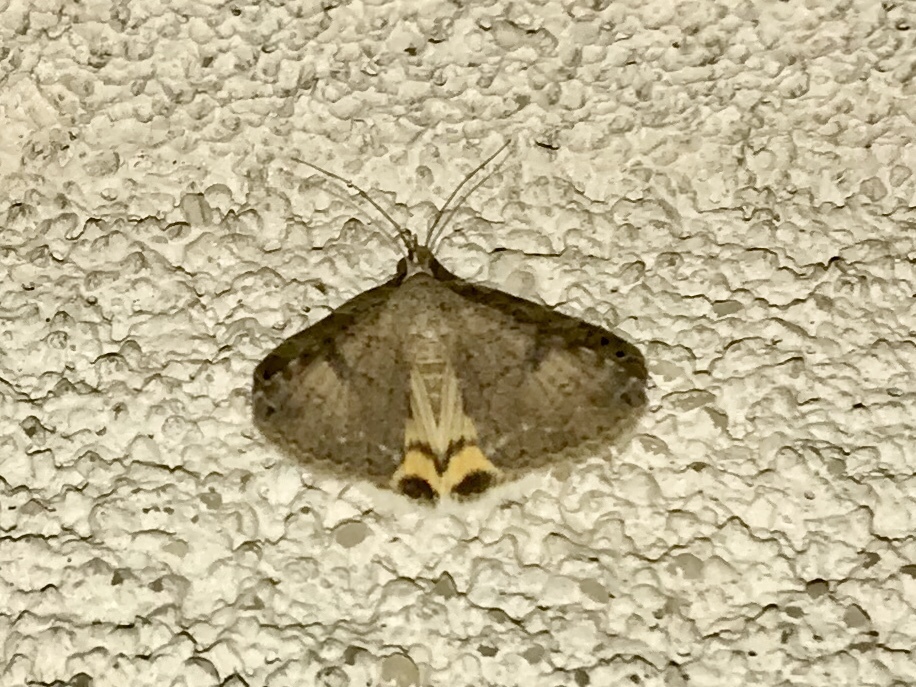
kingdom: Animalia
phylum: Arthropoda
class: Insecta
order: Lepidoptera
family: Erebidae
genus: Bulia
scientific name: Bulia deducta
